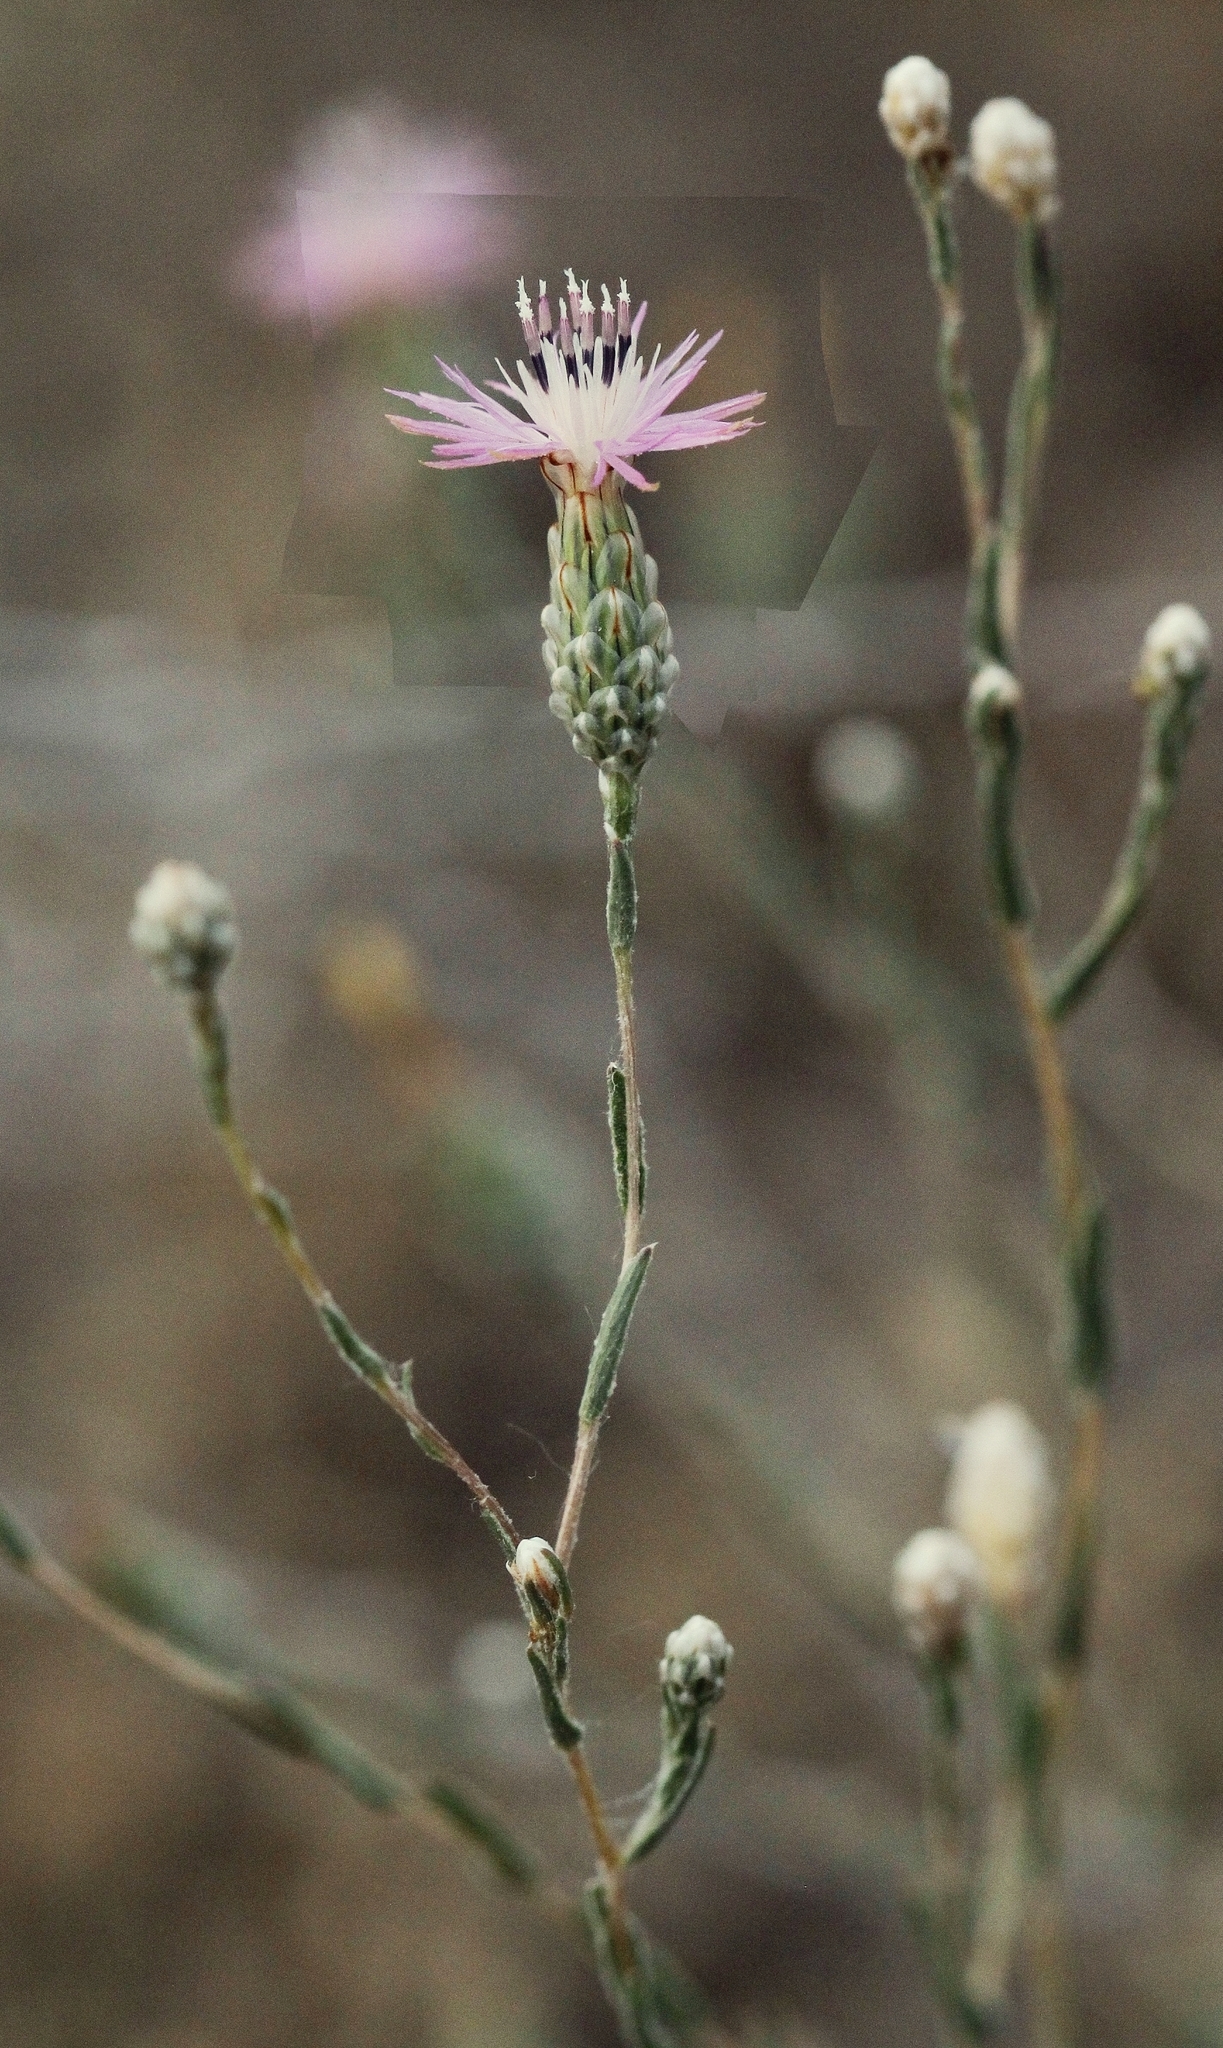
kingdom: Plantae
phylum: Tracheophyta
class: Magnoliopsida
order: Asterales
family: Asteraceae
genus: Centaurea
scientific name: Centaurea pulchella
